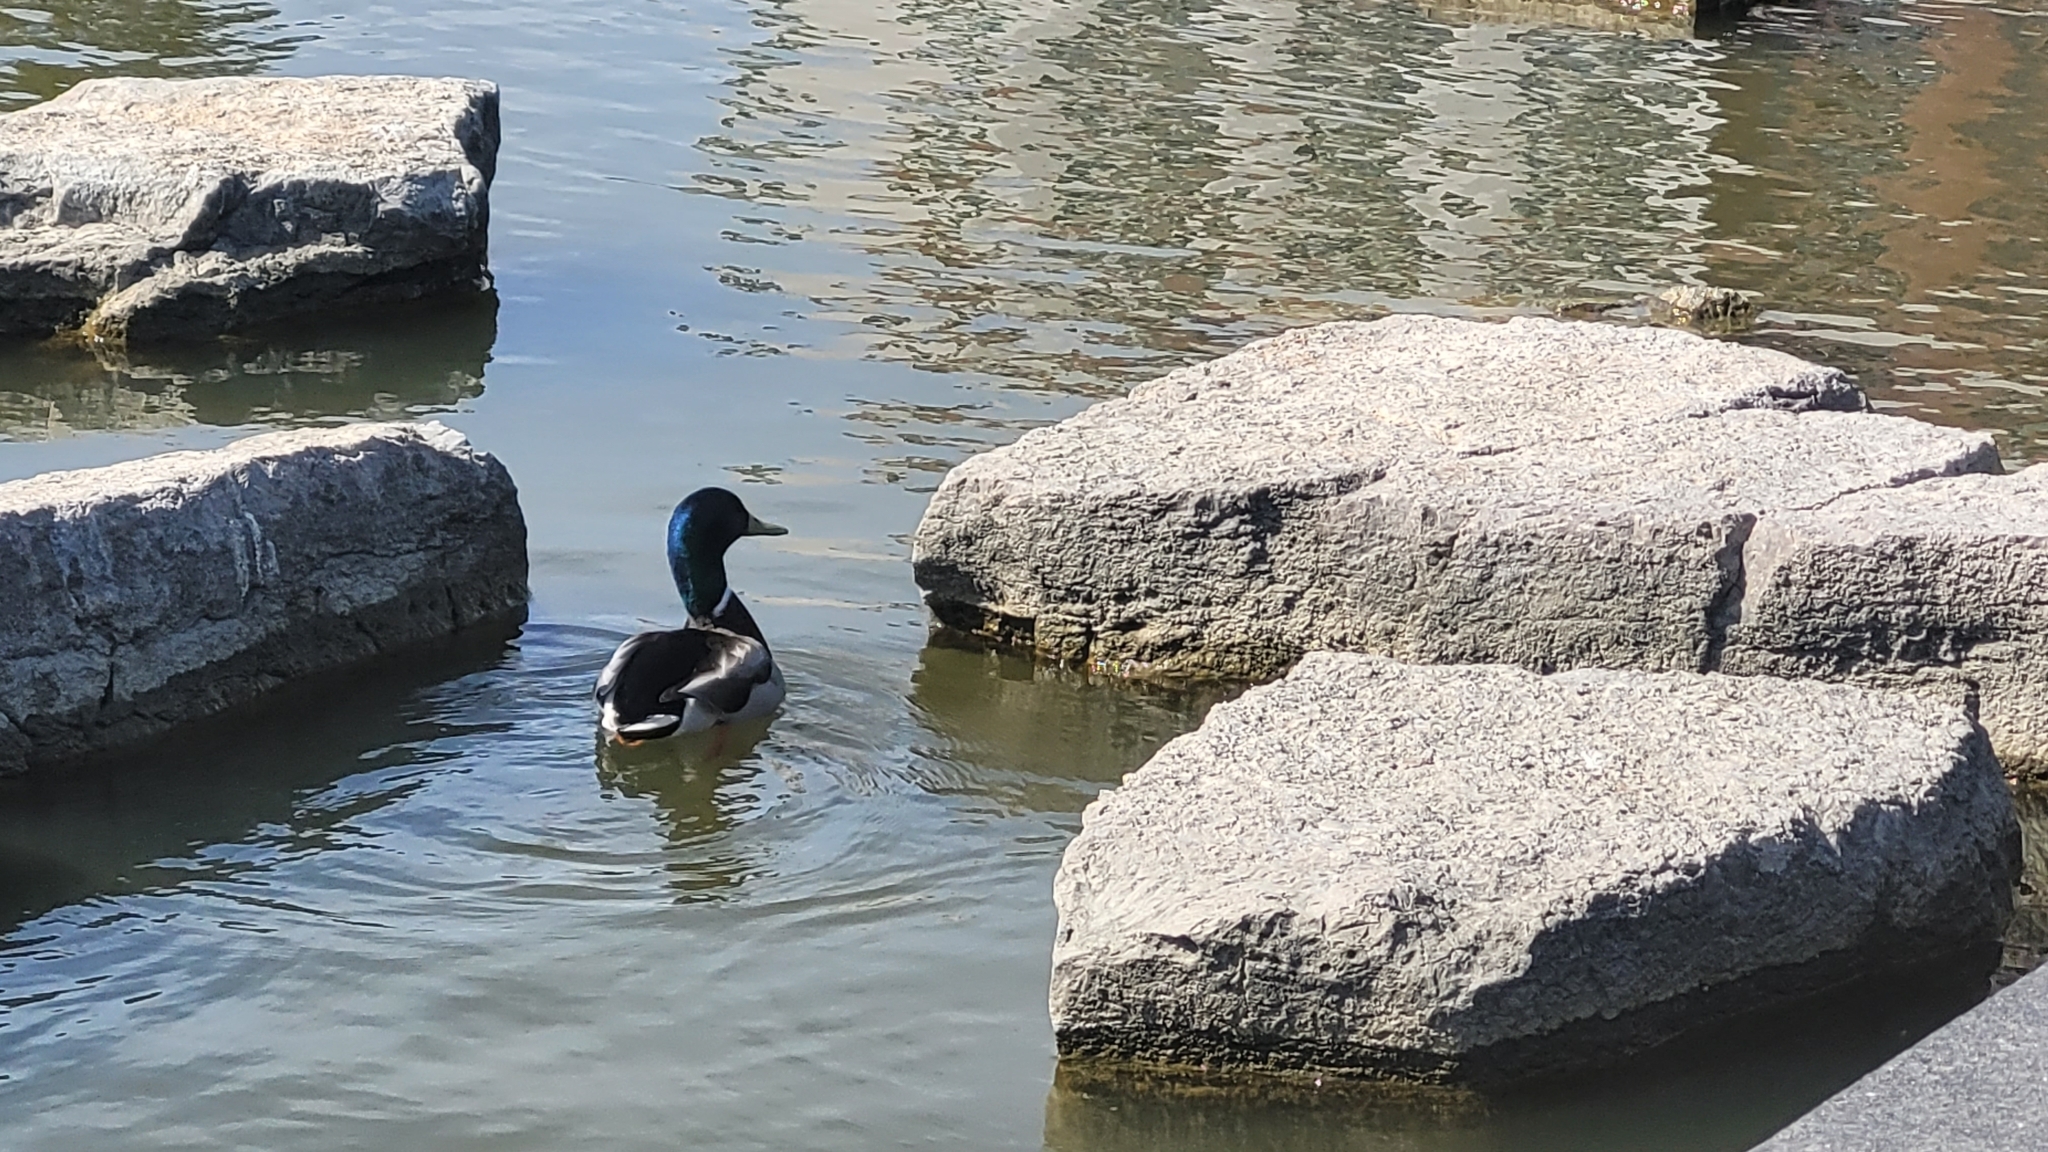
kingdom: Animalia
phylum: Chordata
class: Aves
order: Anseriformes
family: Anatidae
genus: Anas
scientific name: Anas platyrhynchos
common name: Mallard
